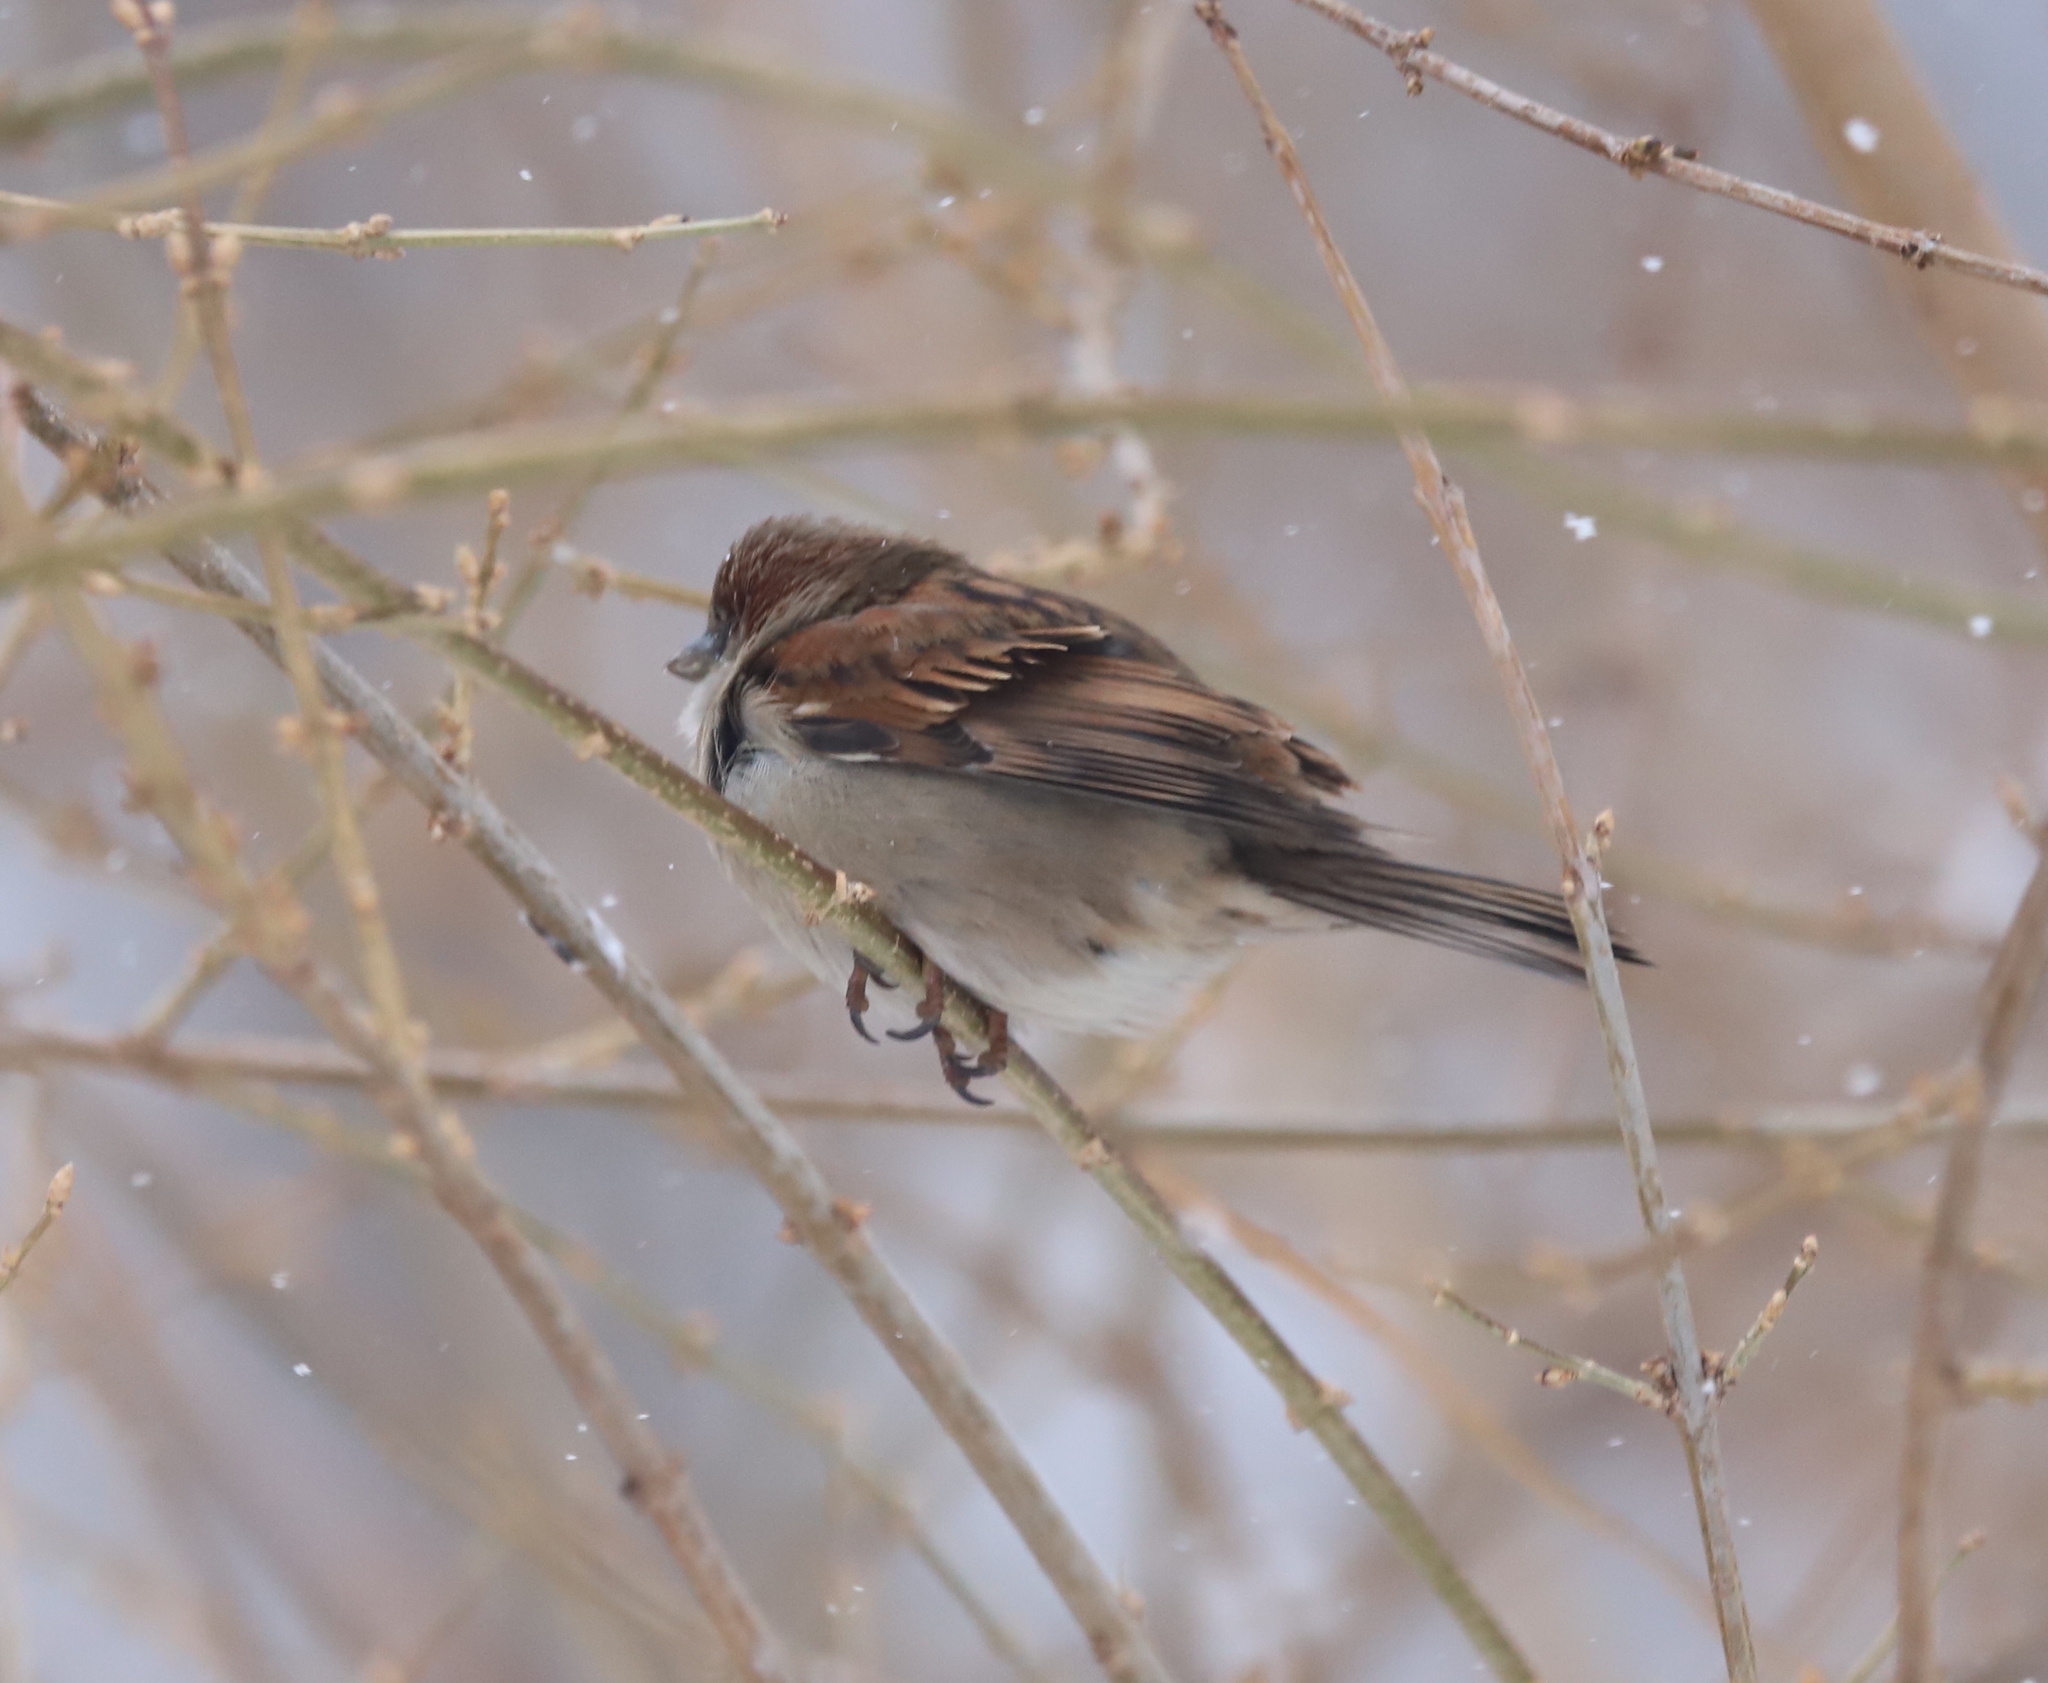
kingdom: Animalia
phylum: Chordata
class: Aves
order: Passeriformes
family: Passeridae
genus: Passer
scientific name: Passer domesticus
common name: House sparrow
